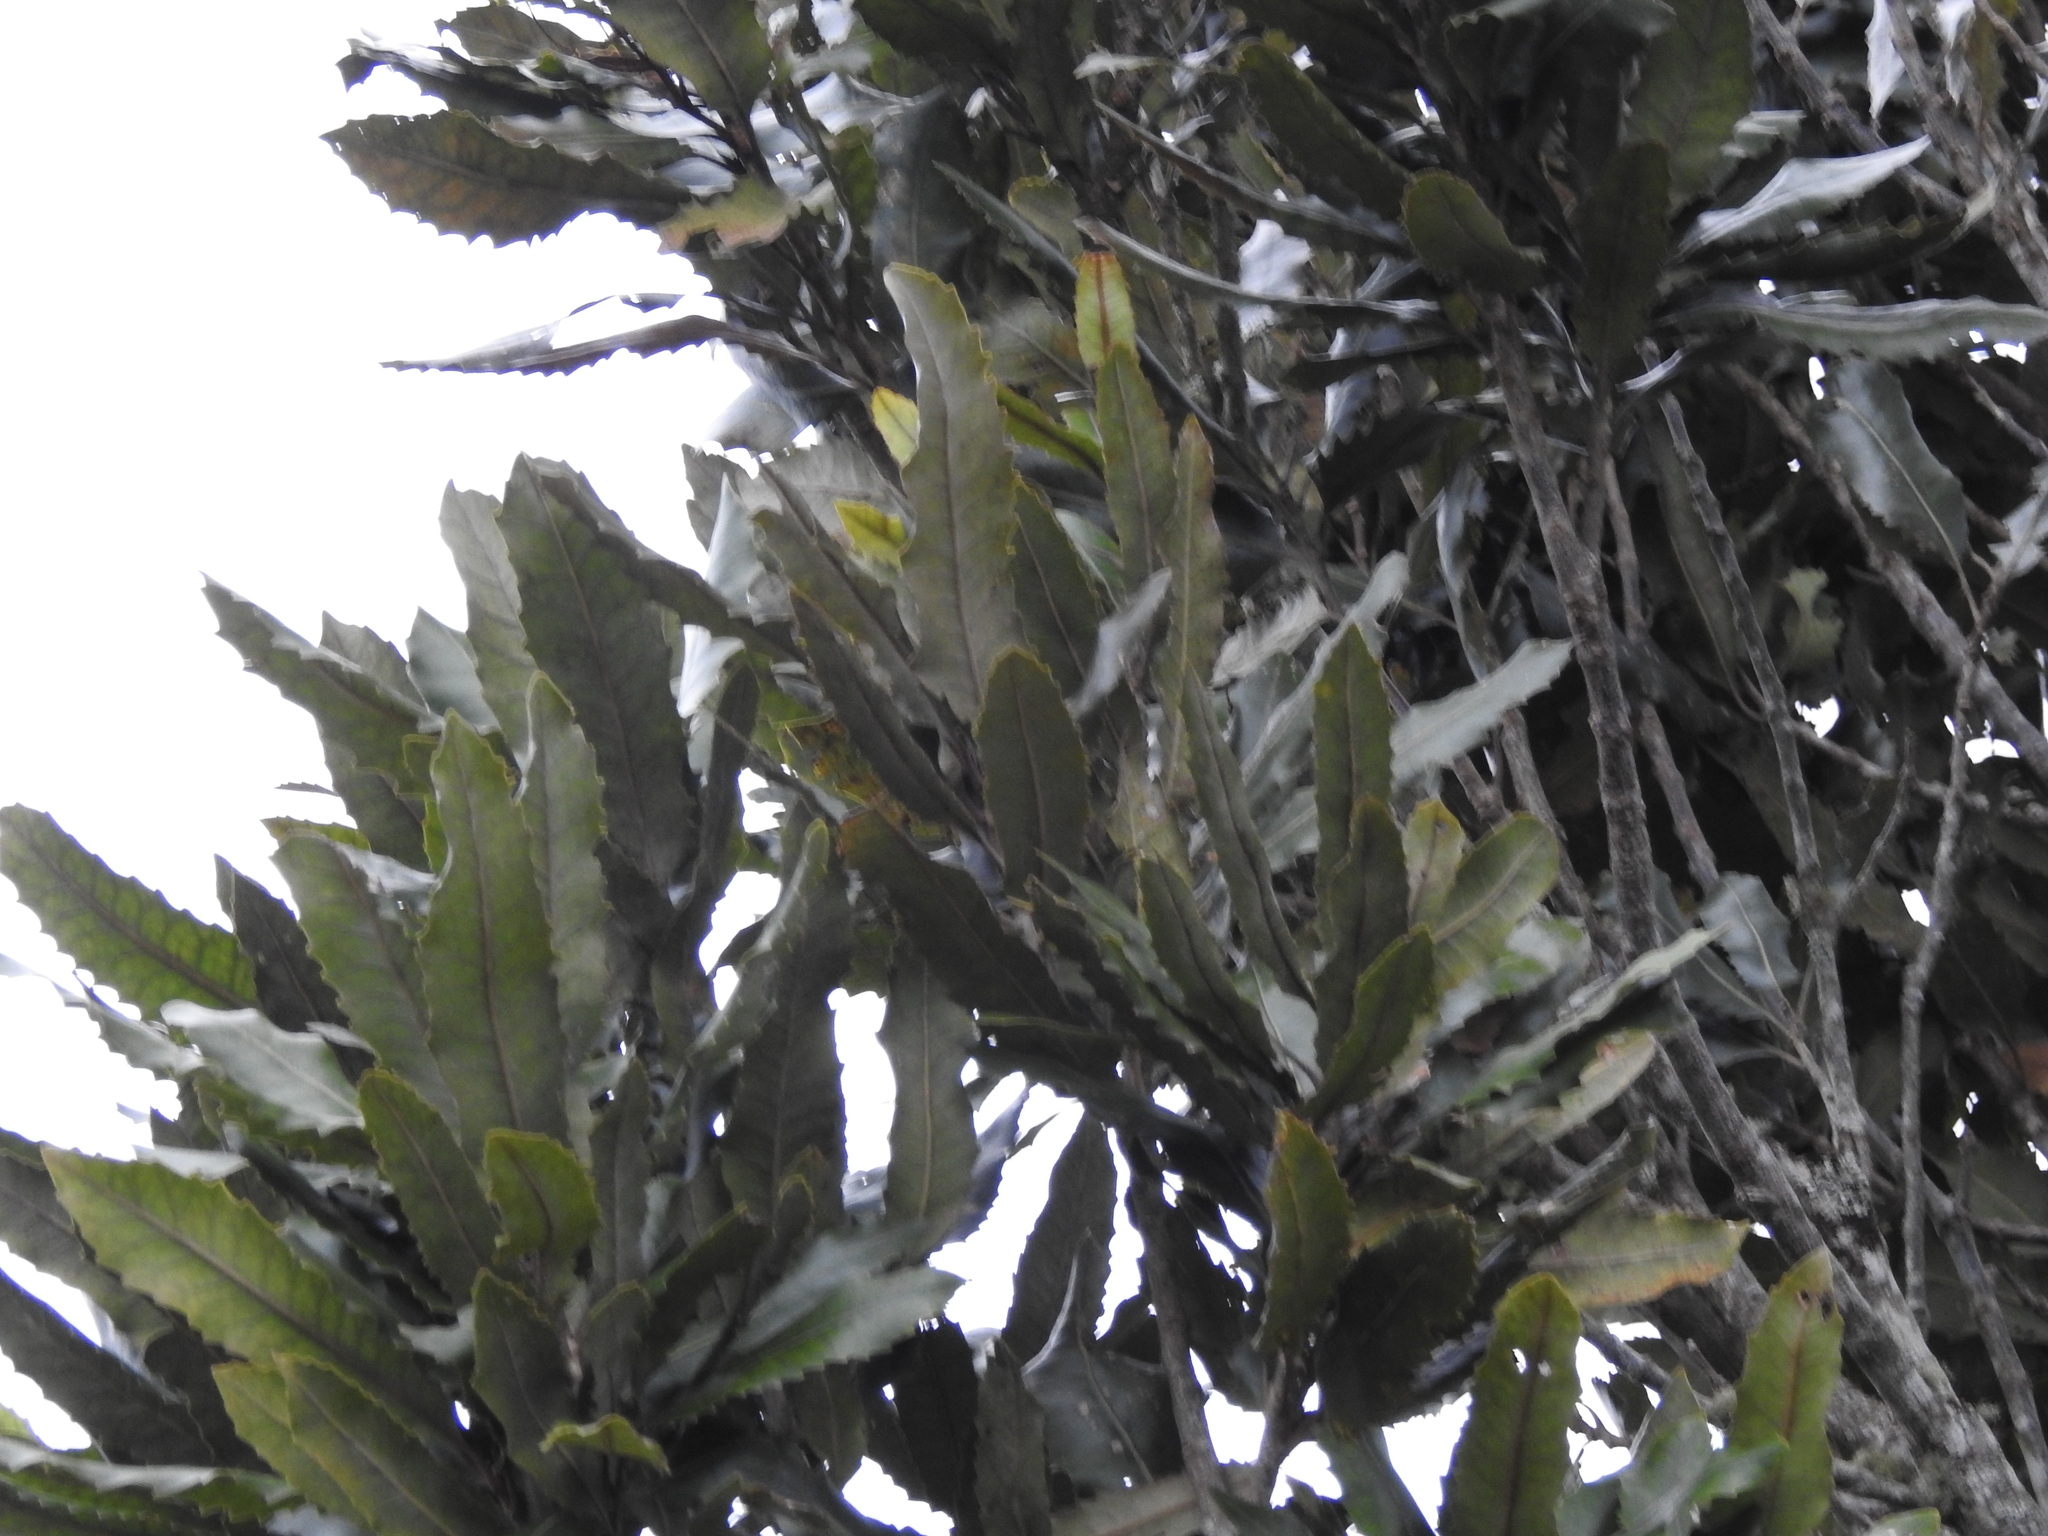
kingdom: Plantae
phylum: Tracheophyta
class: Magnoliopsida
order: Proteales
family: Proteaceae
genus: Knightia
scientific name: Knightia excelsa
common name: New zealand-honeysuckle
